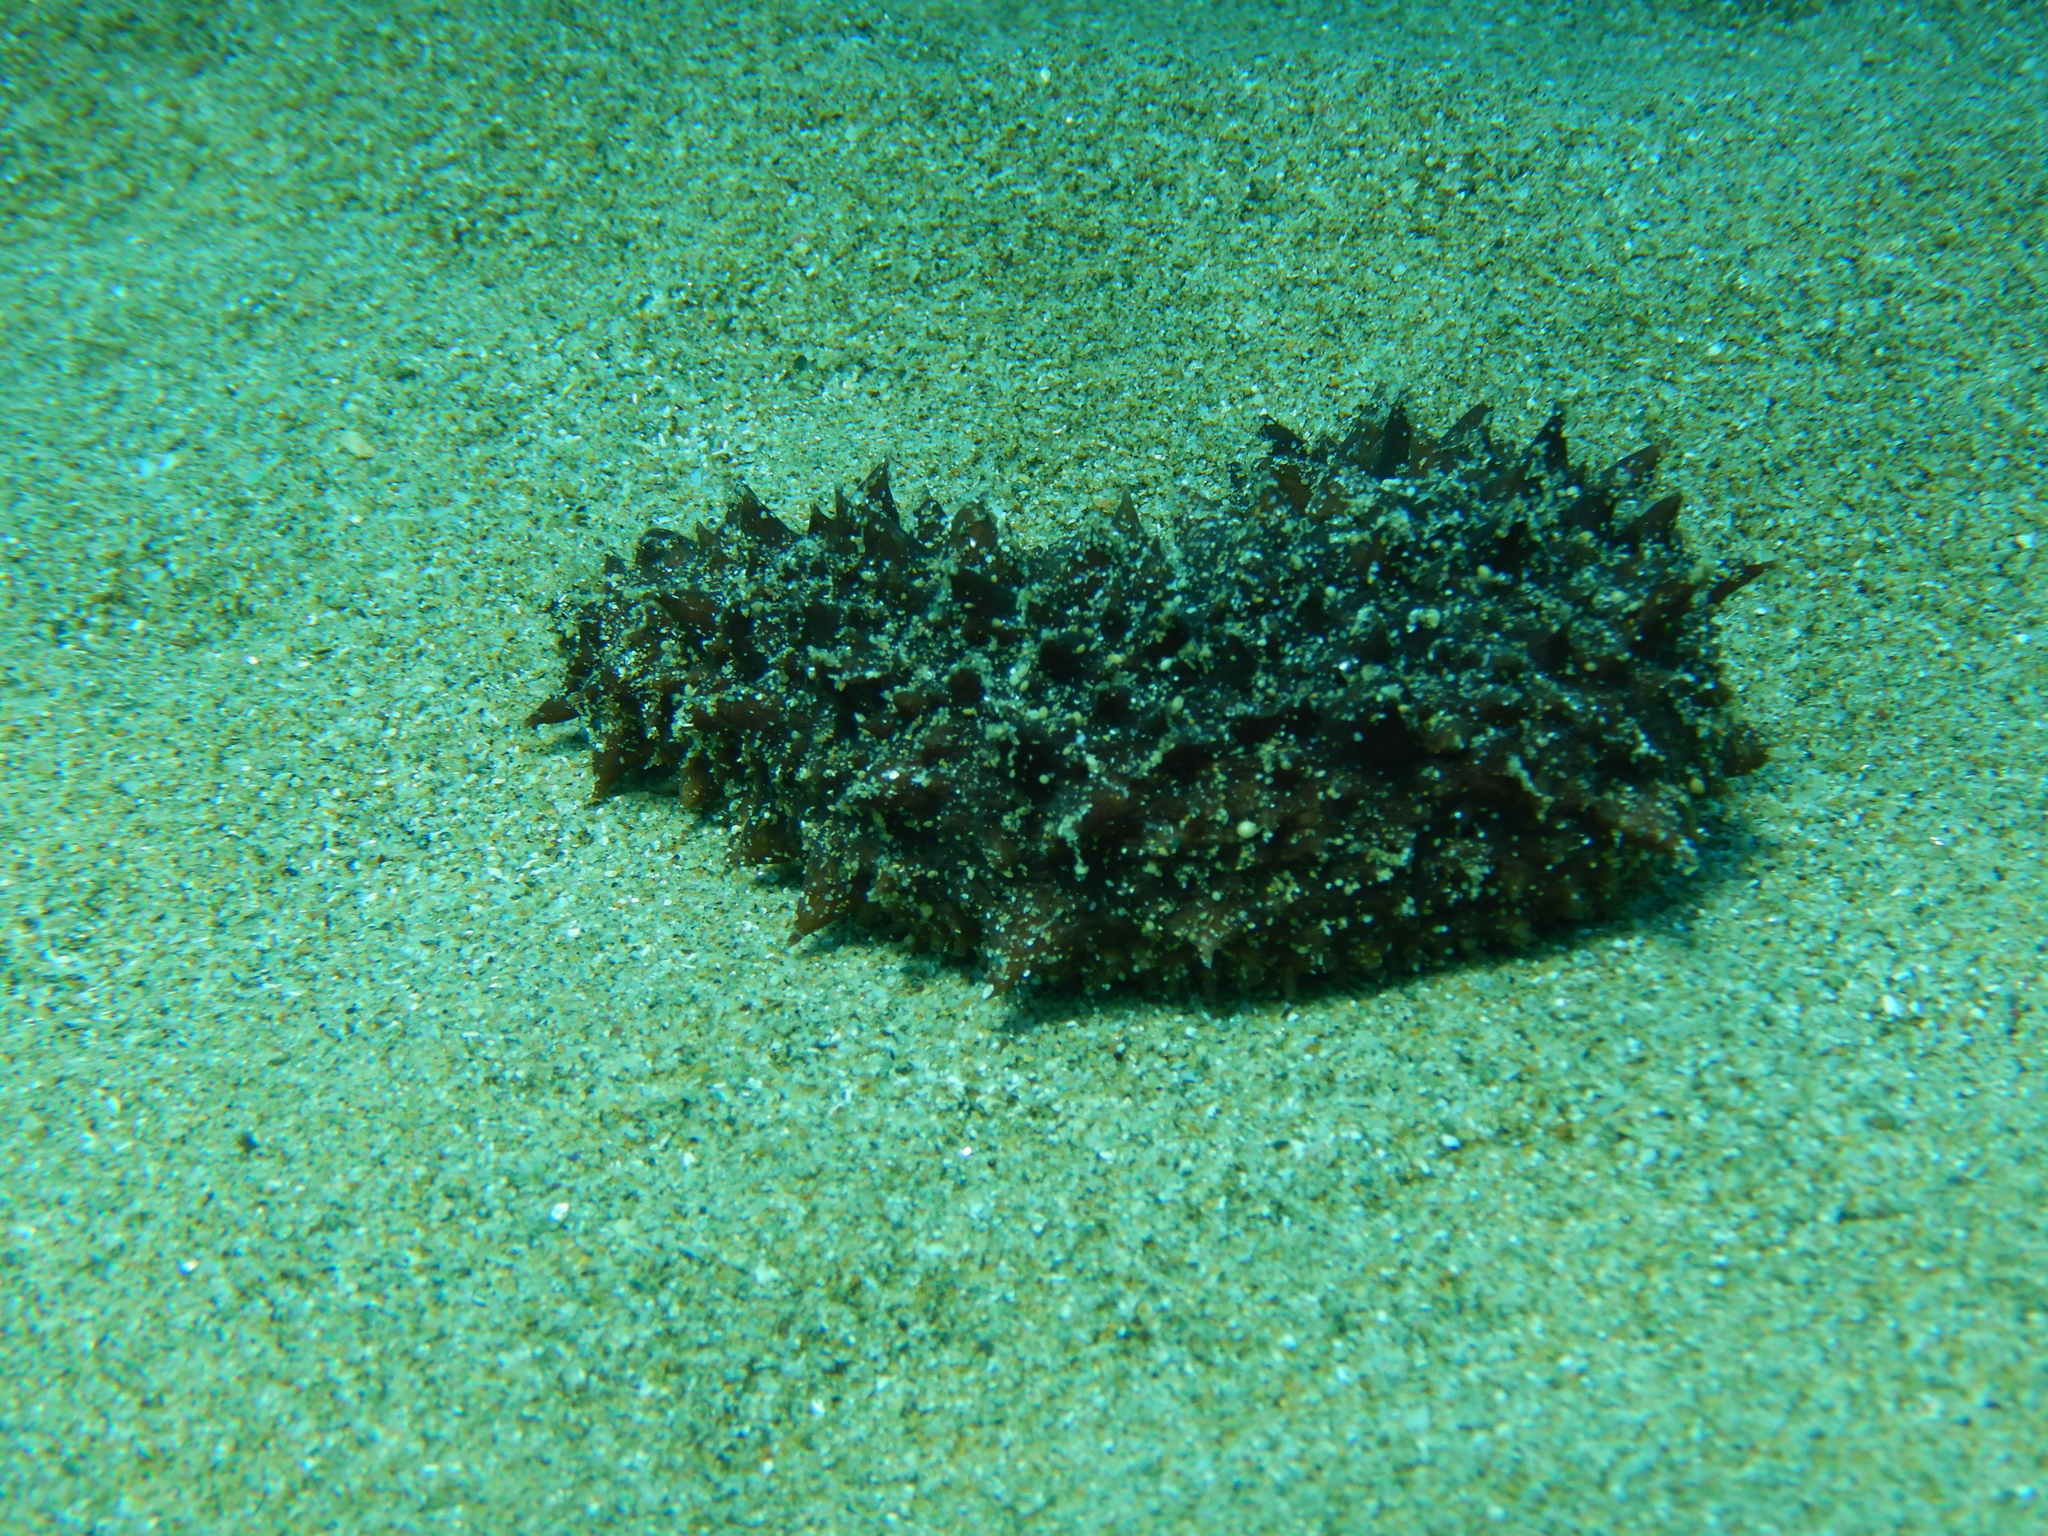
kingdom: Animalia
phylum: Echinodermata
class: Holothuroidea
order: Holothuriida
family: Holothuriidae
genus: Holothuria
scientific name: Holothuria tubulosa
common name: Cotton-spinner
